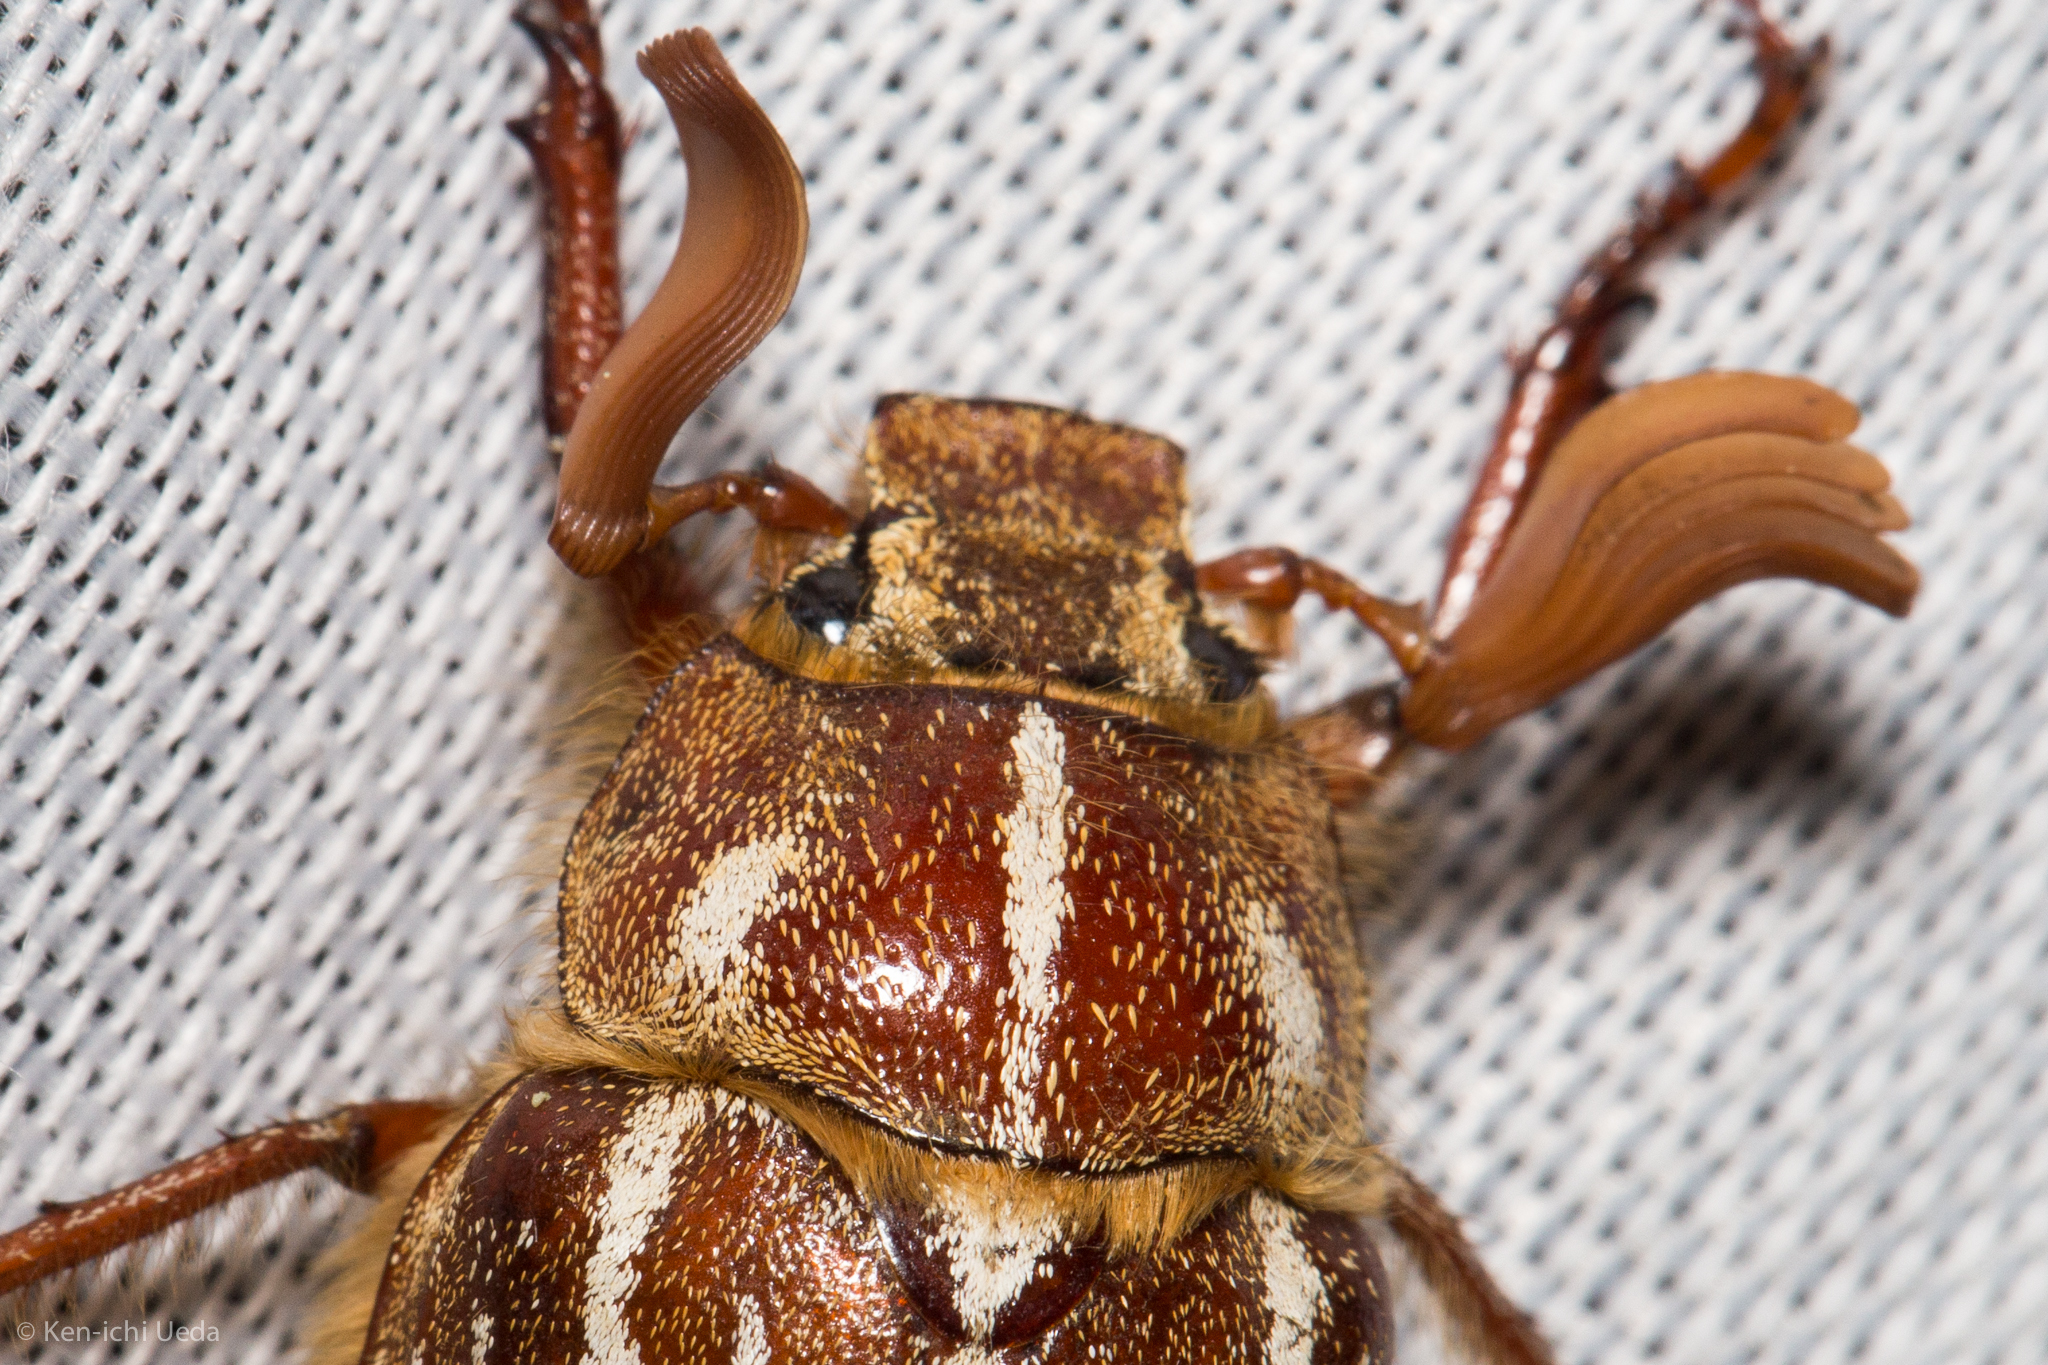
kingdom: Animalia
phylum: Arthropoda
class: Insecta
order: Coleoptera
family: Scarabaeidae
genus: Polyphylla
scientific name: Polyphylla sobrina
